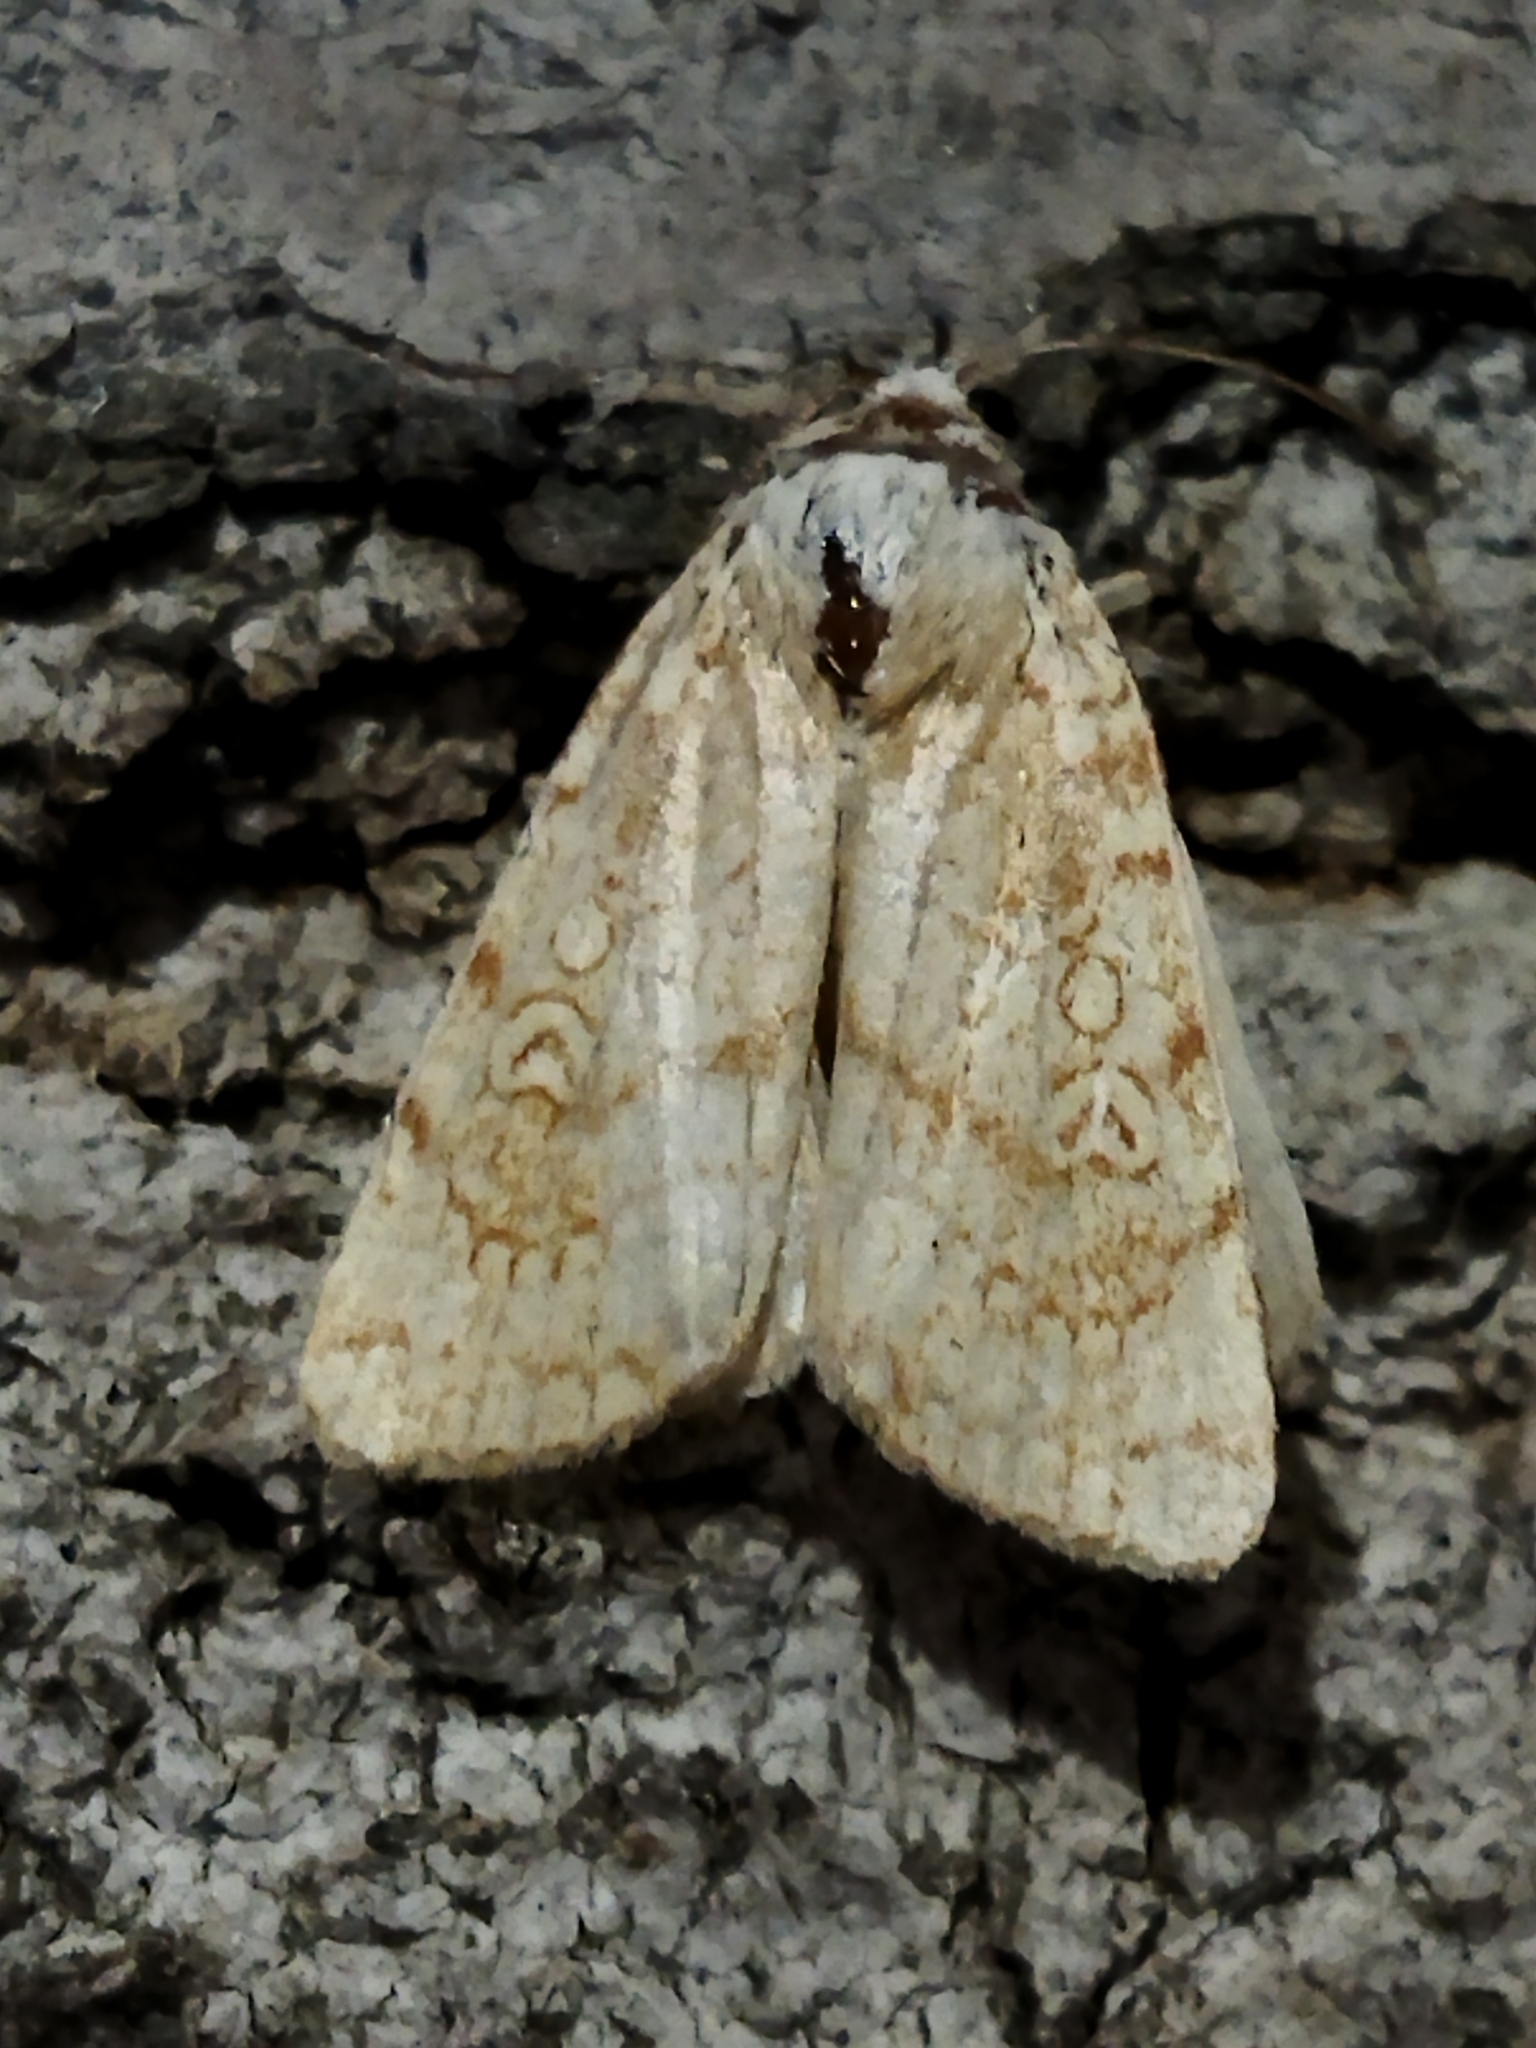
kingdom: Animalia
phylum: Arthropoda
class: Insecta
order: Lepidoptera
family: Noctuidae
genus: Dicycla
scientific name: Dicycla oo
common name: Heart moth
